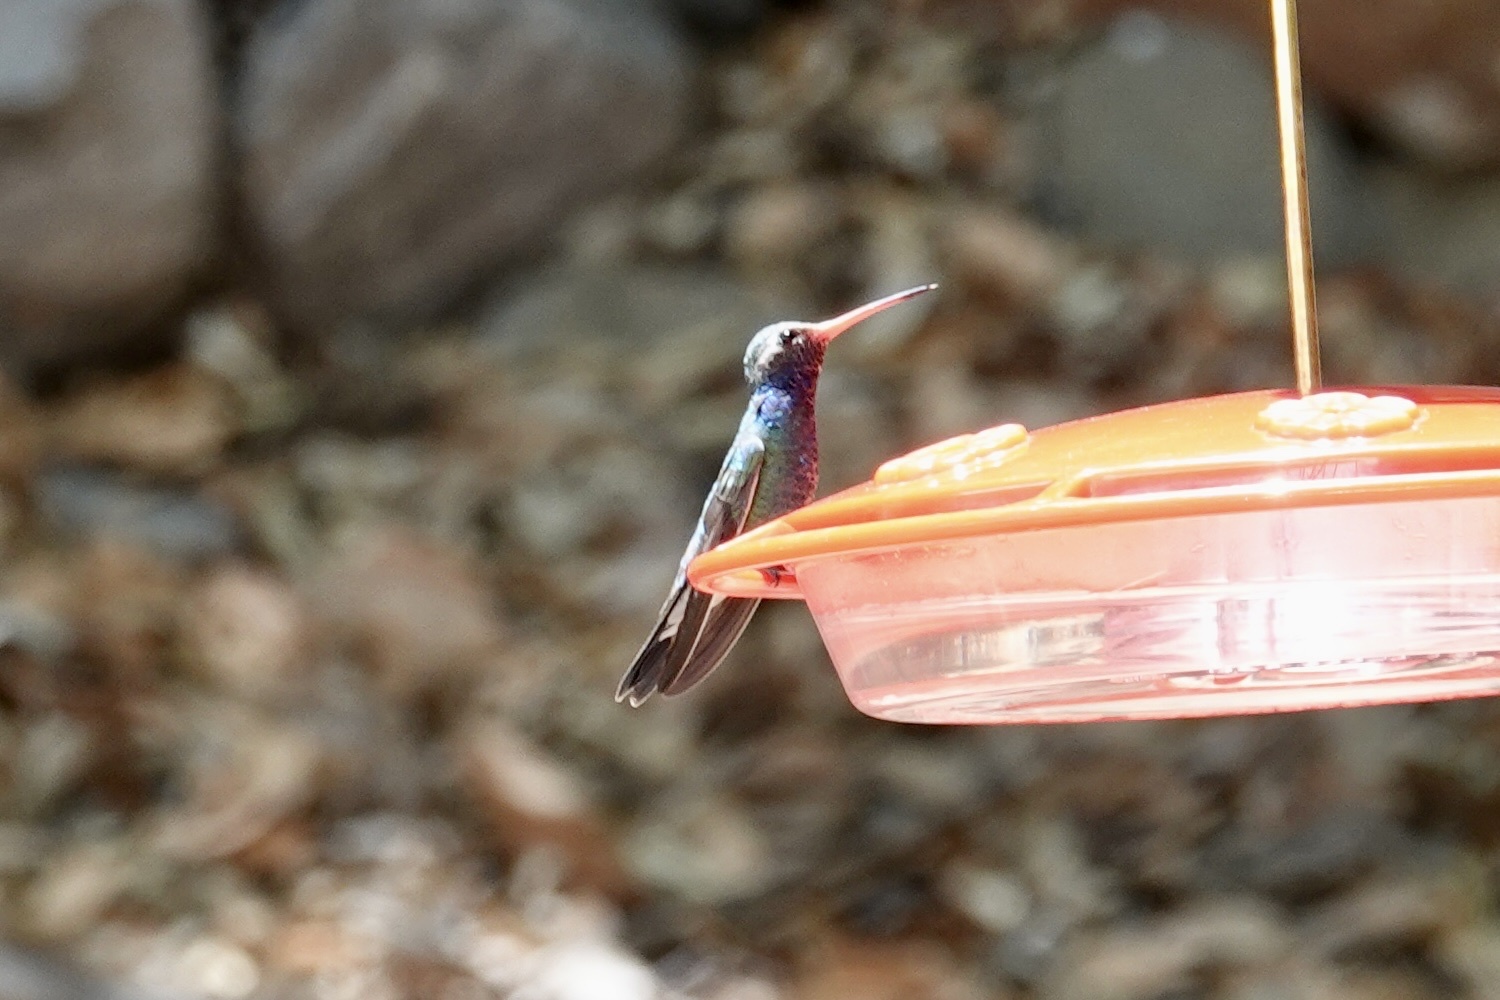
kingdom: Animalia
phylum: Chordata
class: Aves
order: Apodiformes
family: Trochilidae
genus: Cynanthus
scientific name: Cynanthus latirostris
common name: Broad-billed hummingbird
